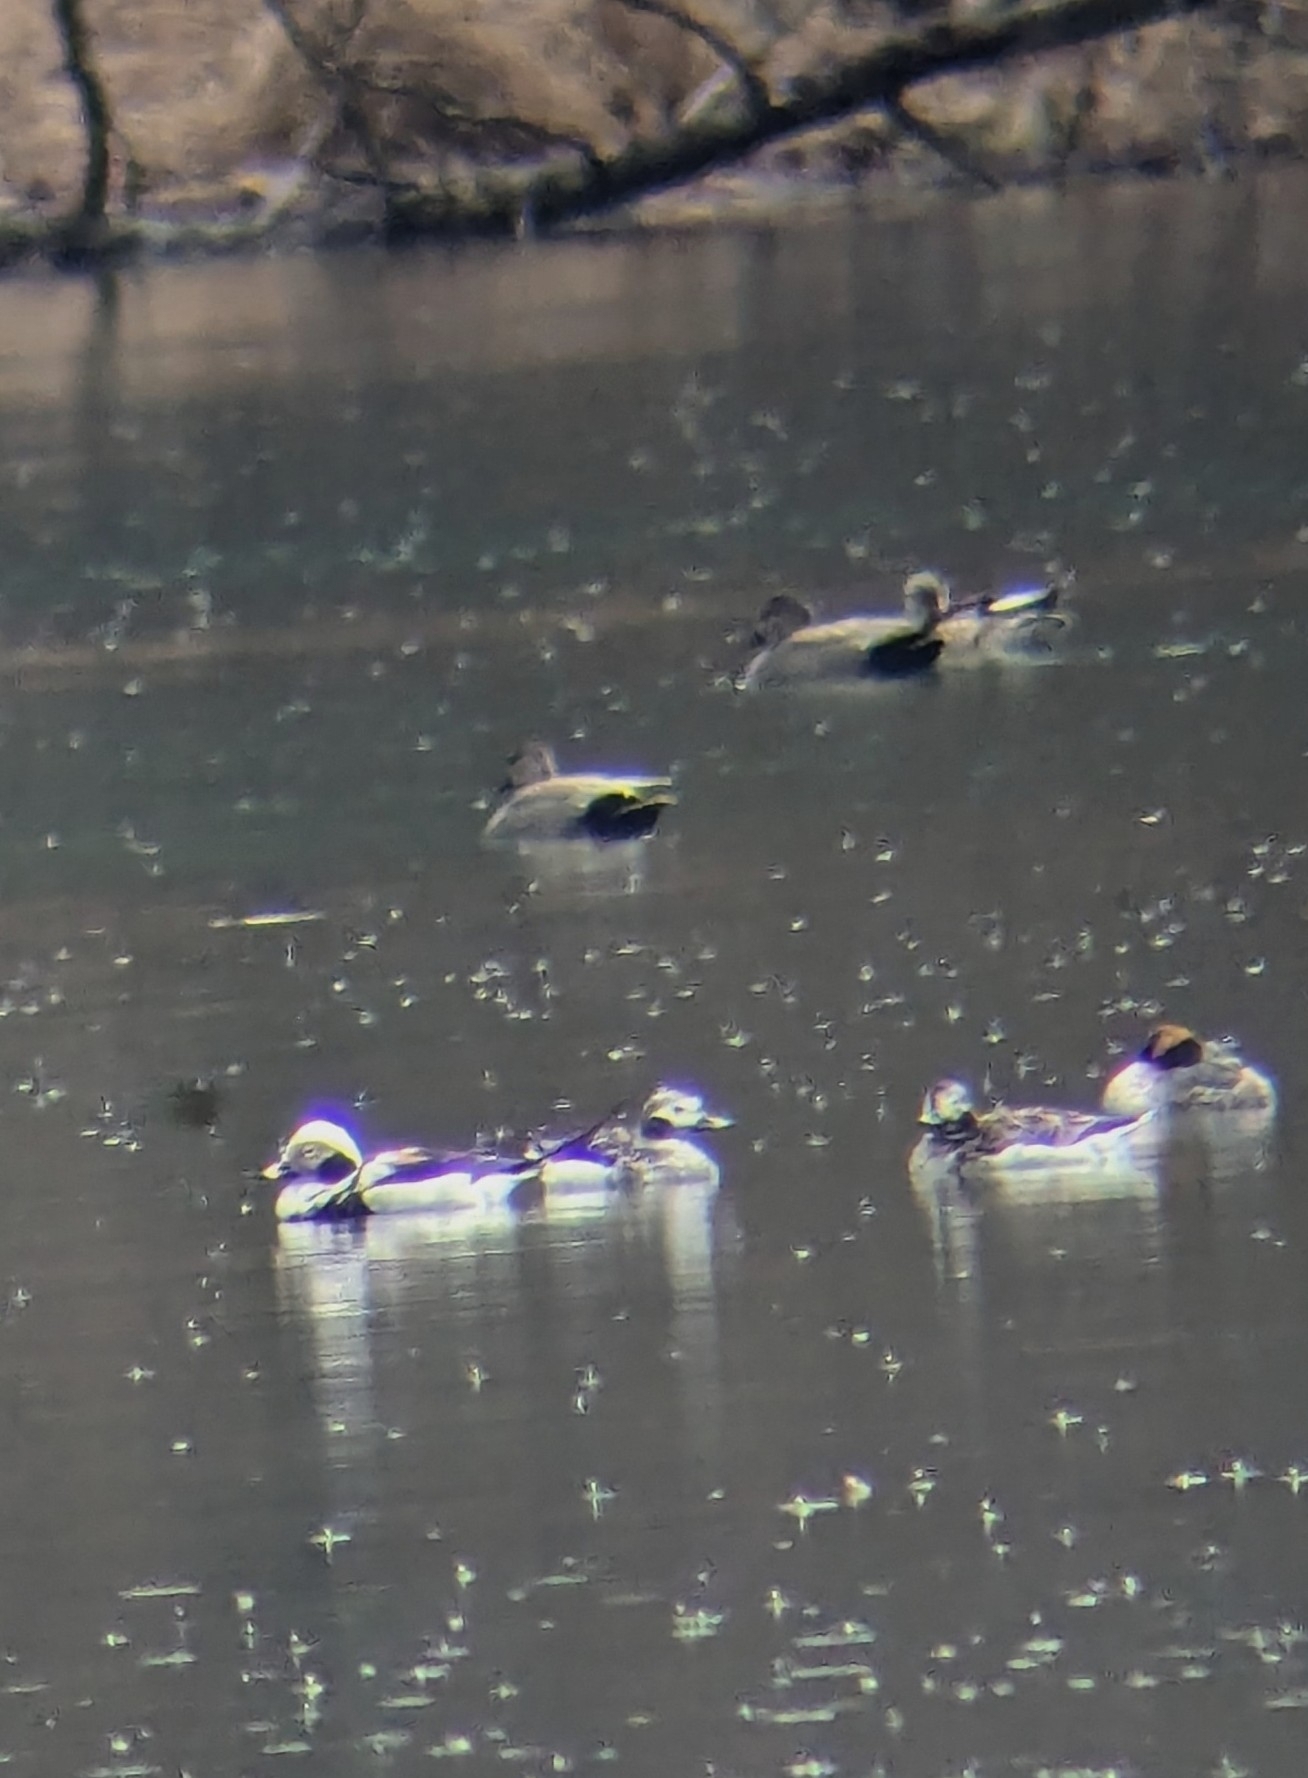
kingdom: Animalia
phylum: Chordata
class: Aves
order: Anseriformes
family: Anatidae
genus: Clangula
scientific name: Clangula hyemalis
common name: Long-tailed duck
